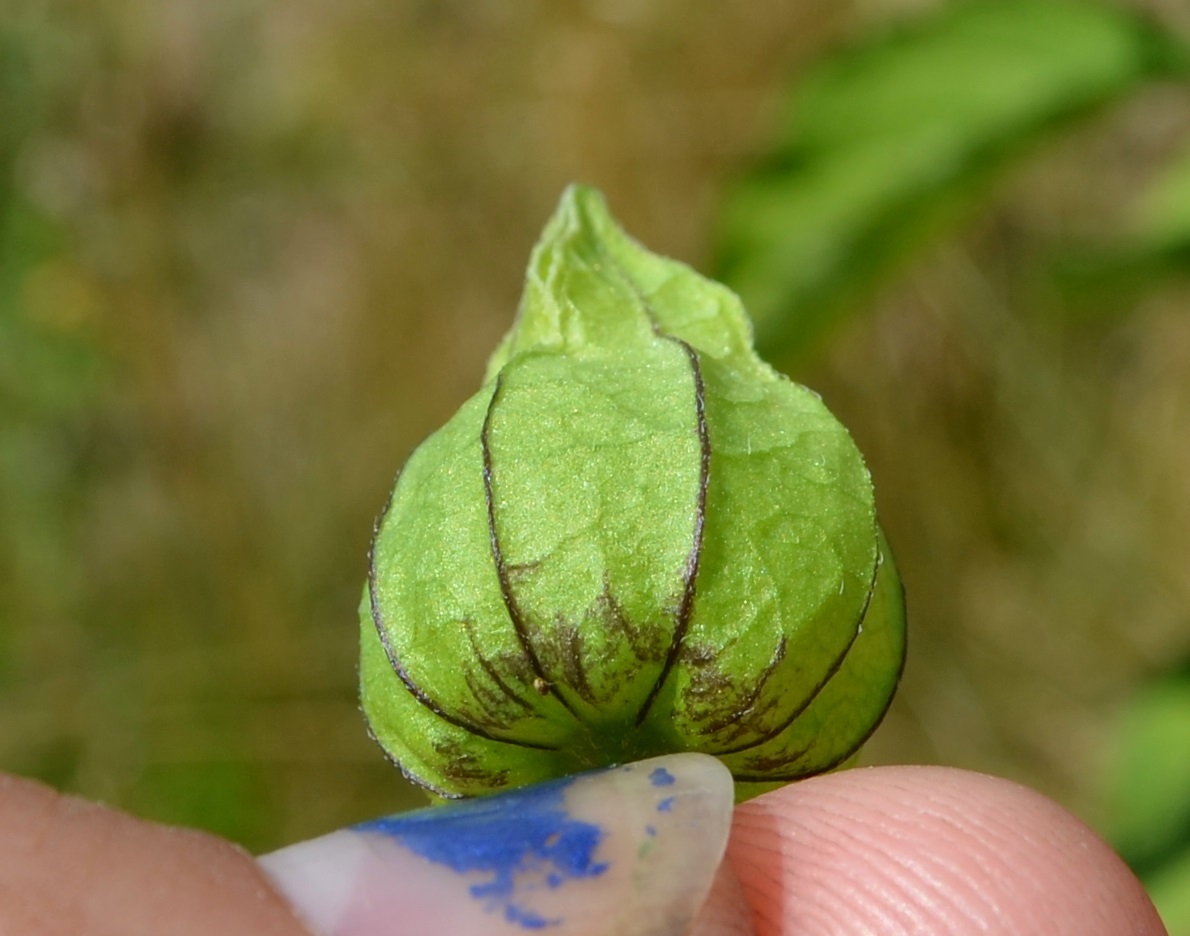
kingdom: Plantae
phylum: Tracheophyta
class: Magnoliopsida
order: Solanales
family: Solanaceae
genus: Physalis
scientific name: Physalis longifolia
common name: Common ground-cherry
